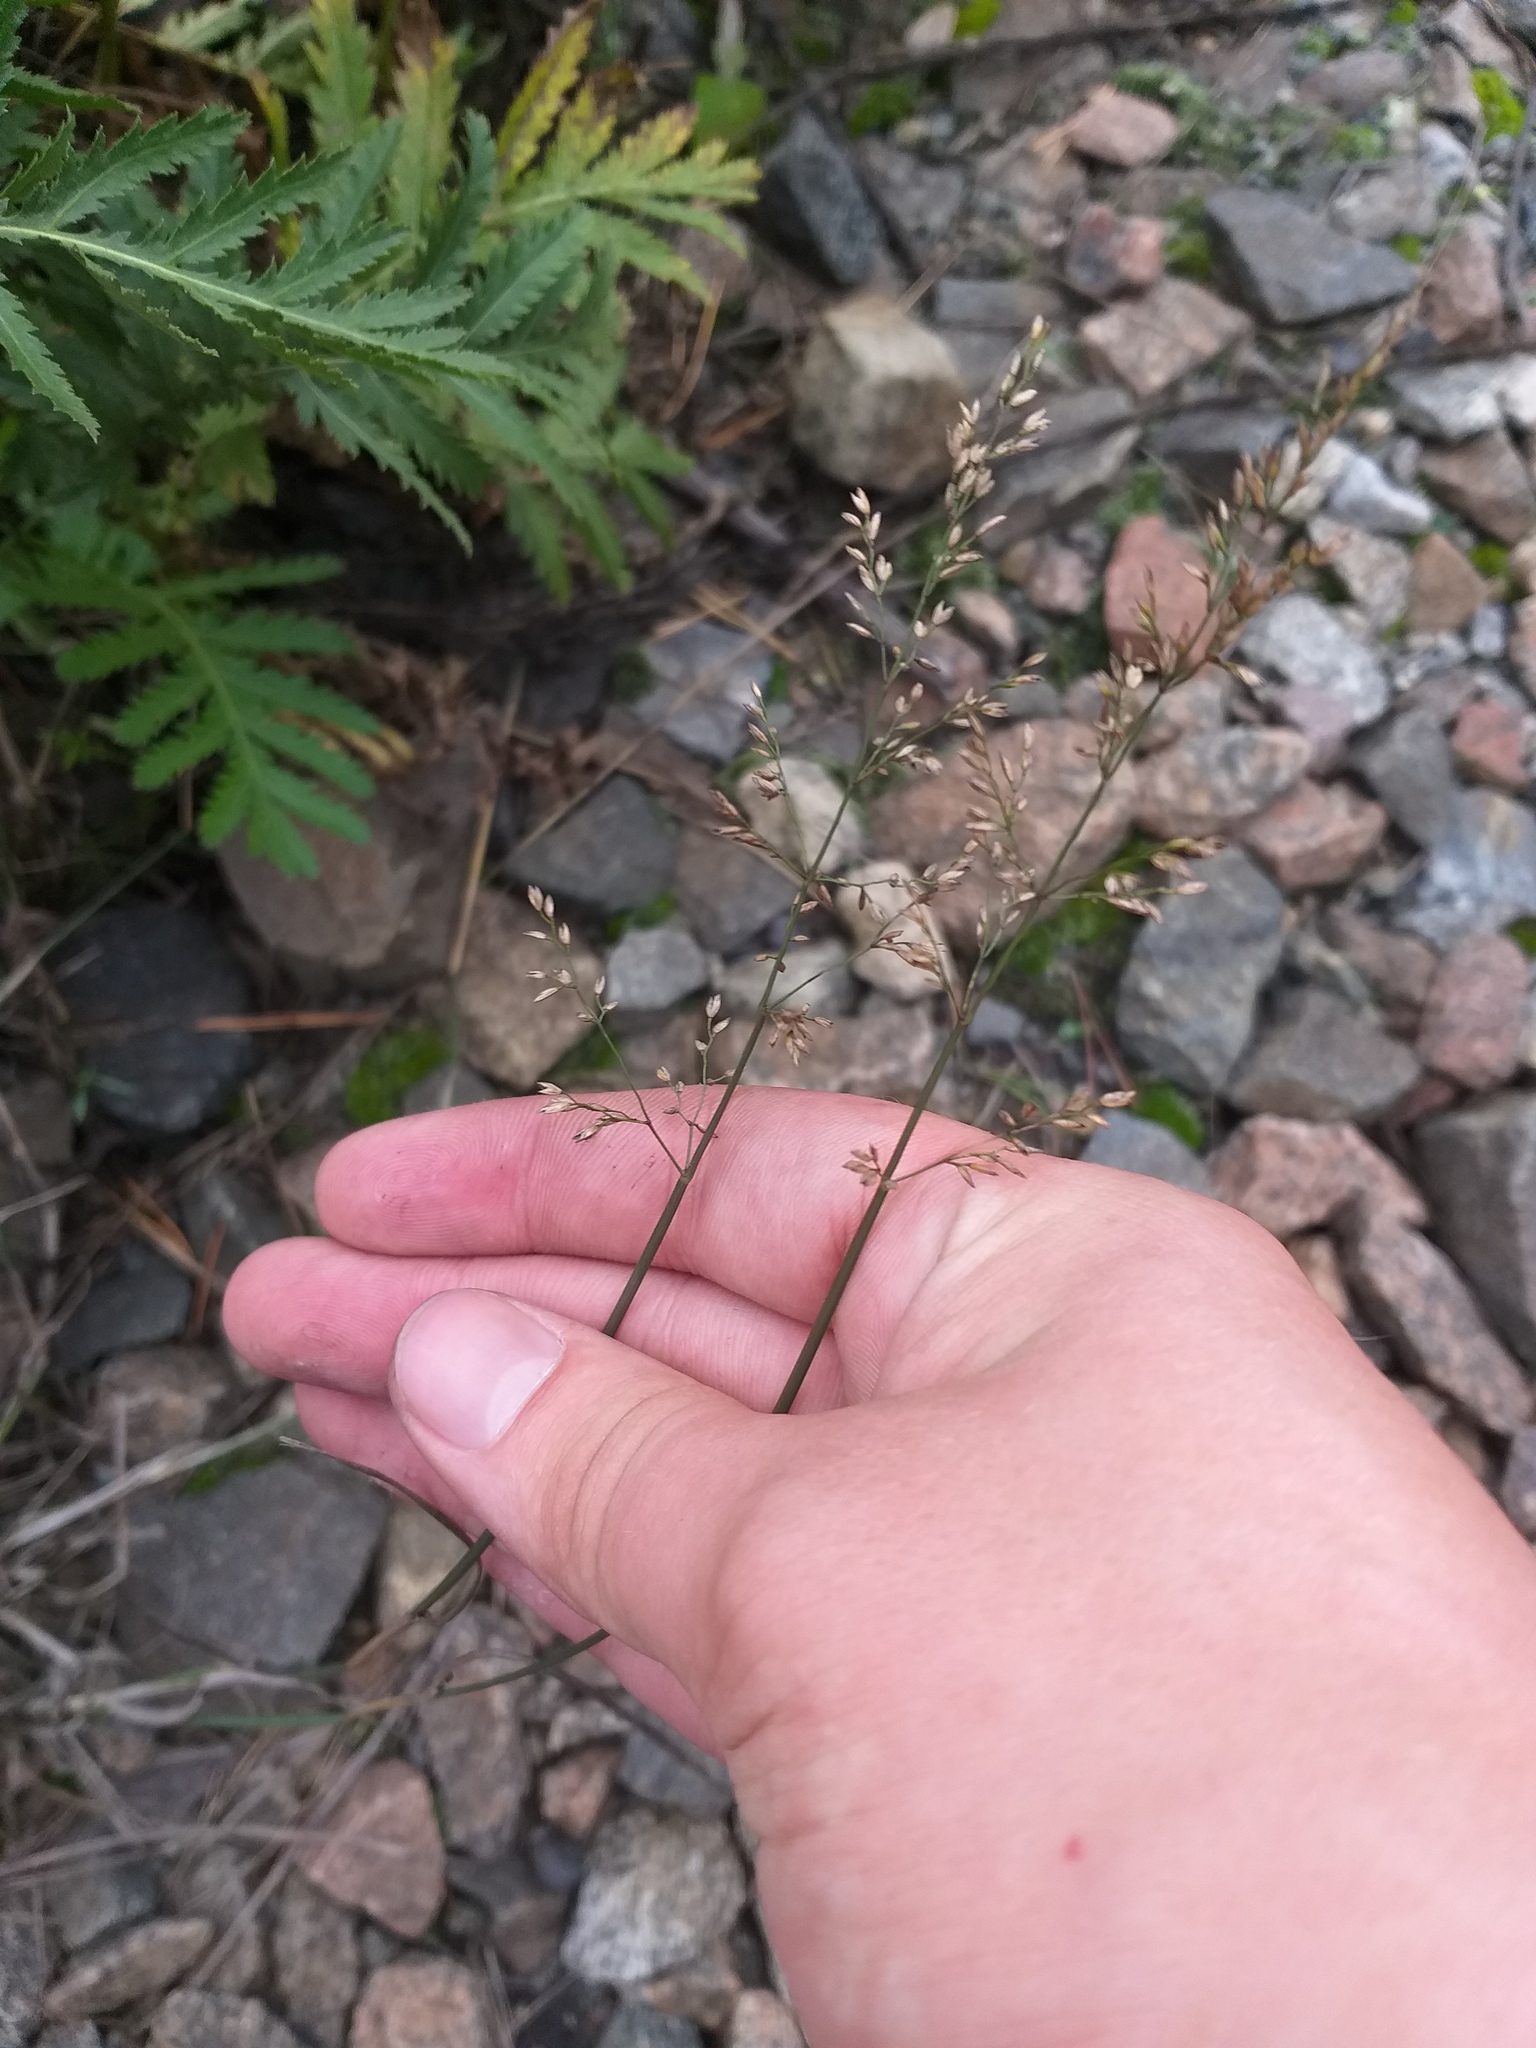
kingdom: Plantae
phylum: Tracheophyta
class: Liliopsida
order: Poales
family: Poaceae
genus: Poa
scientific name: Poa compressa
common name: Canada bluegrass
